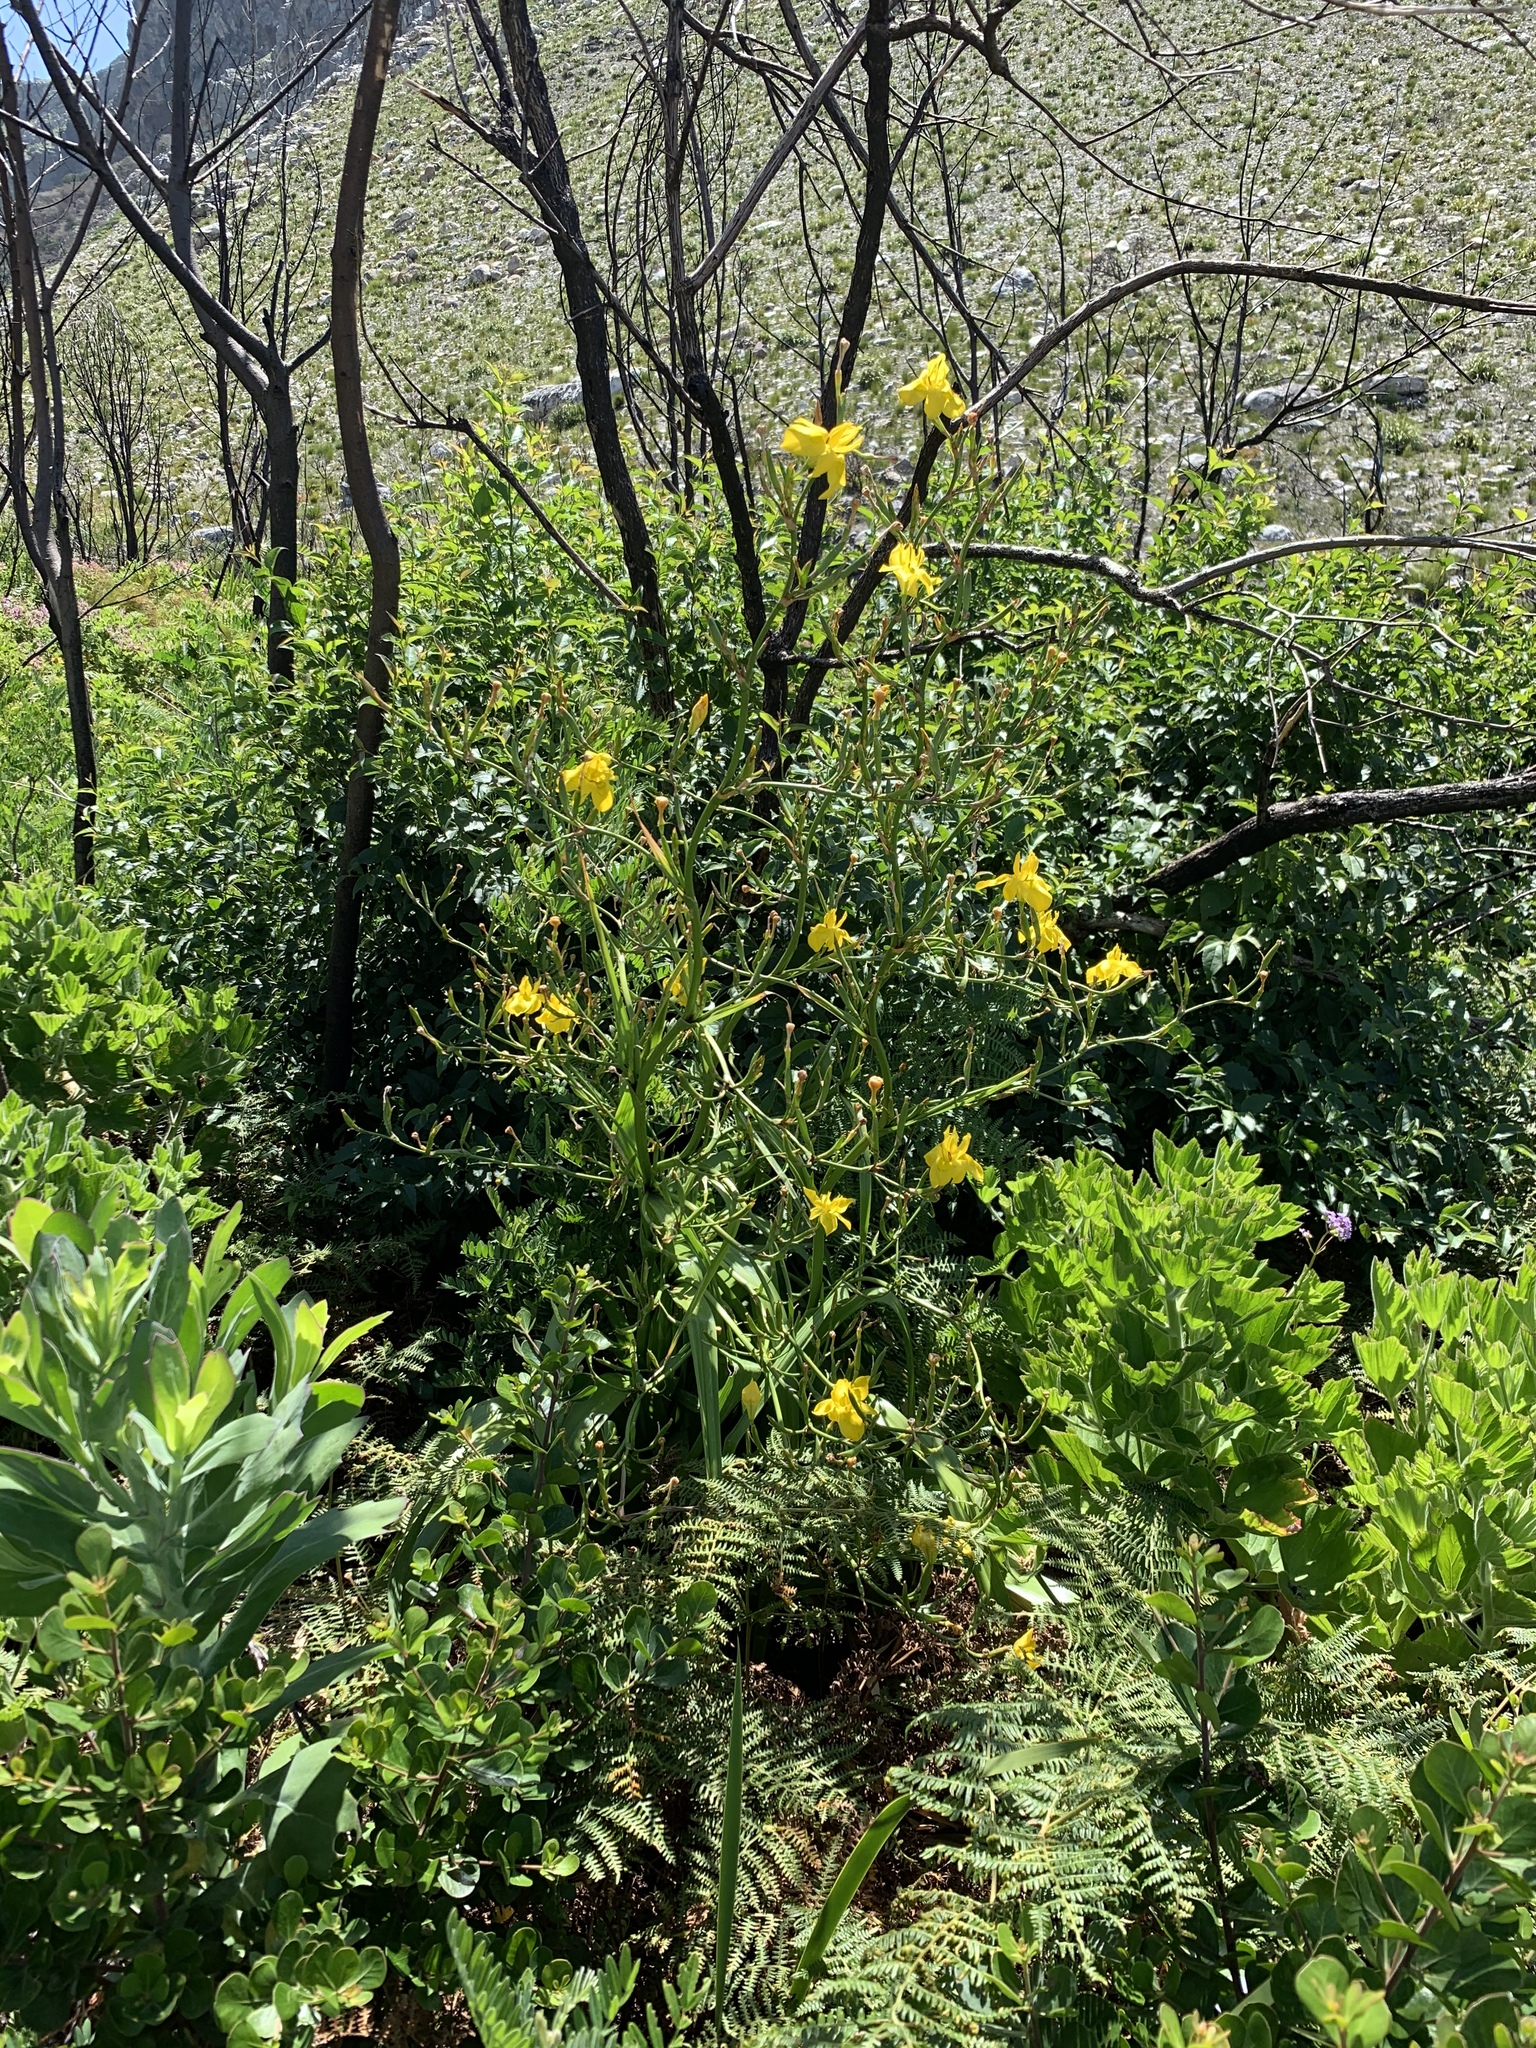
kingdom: Plantae
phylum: Tracheophyta
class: Liliopsida
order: Asparagales
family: Iridaceae
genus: Moraea
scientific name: Moraea ramosissima
